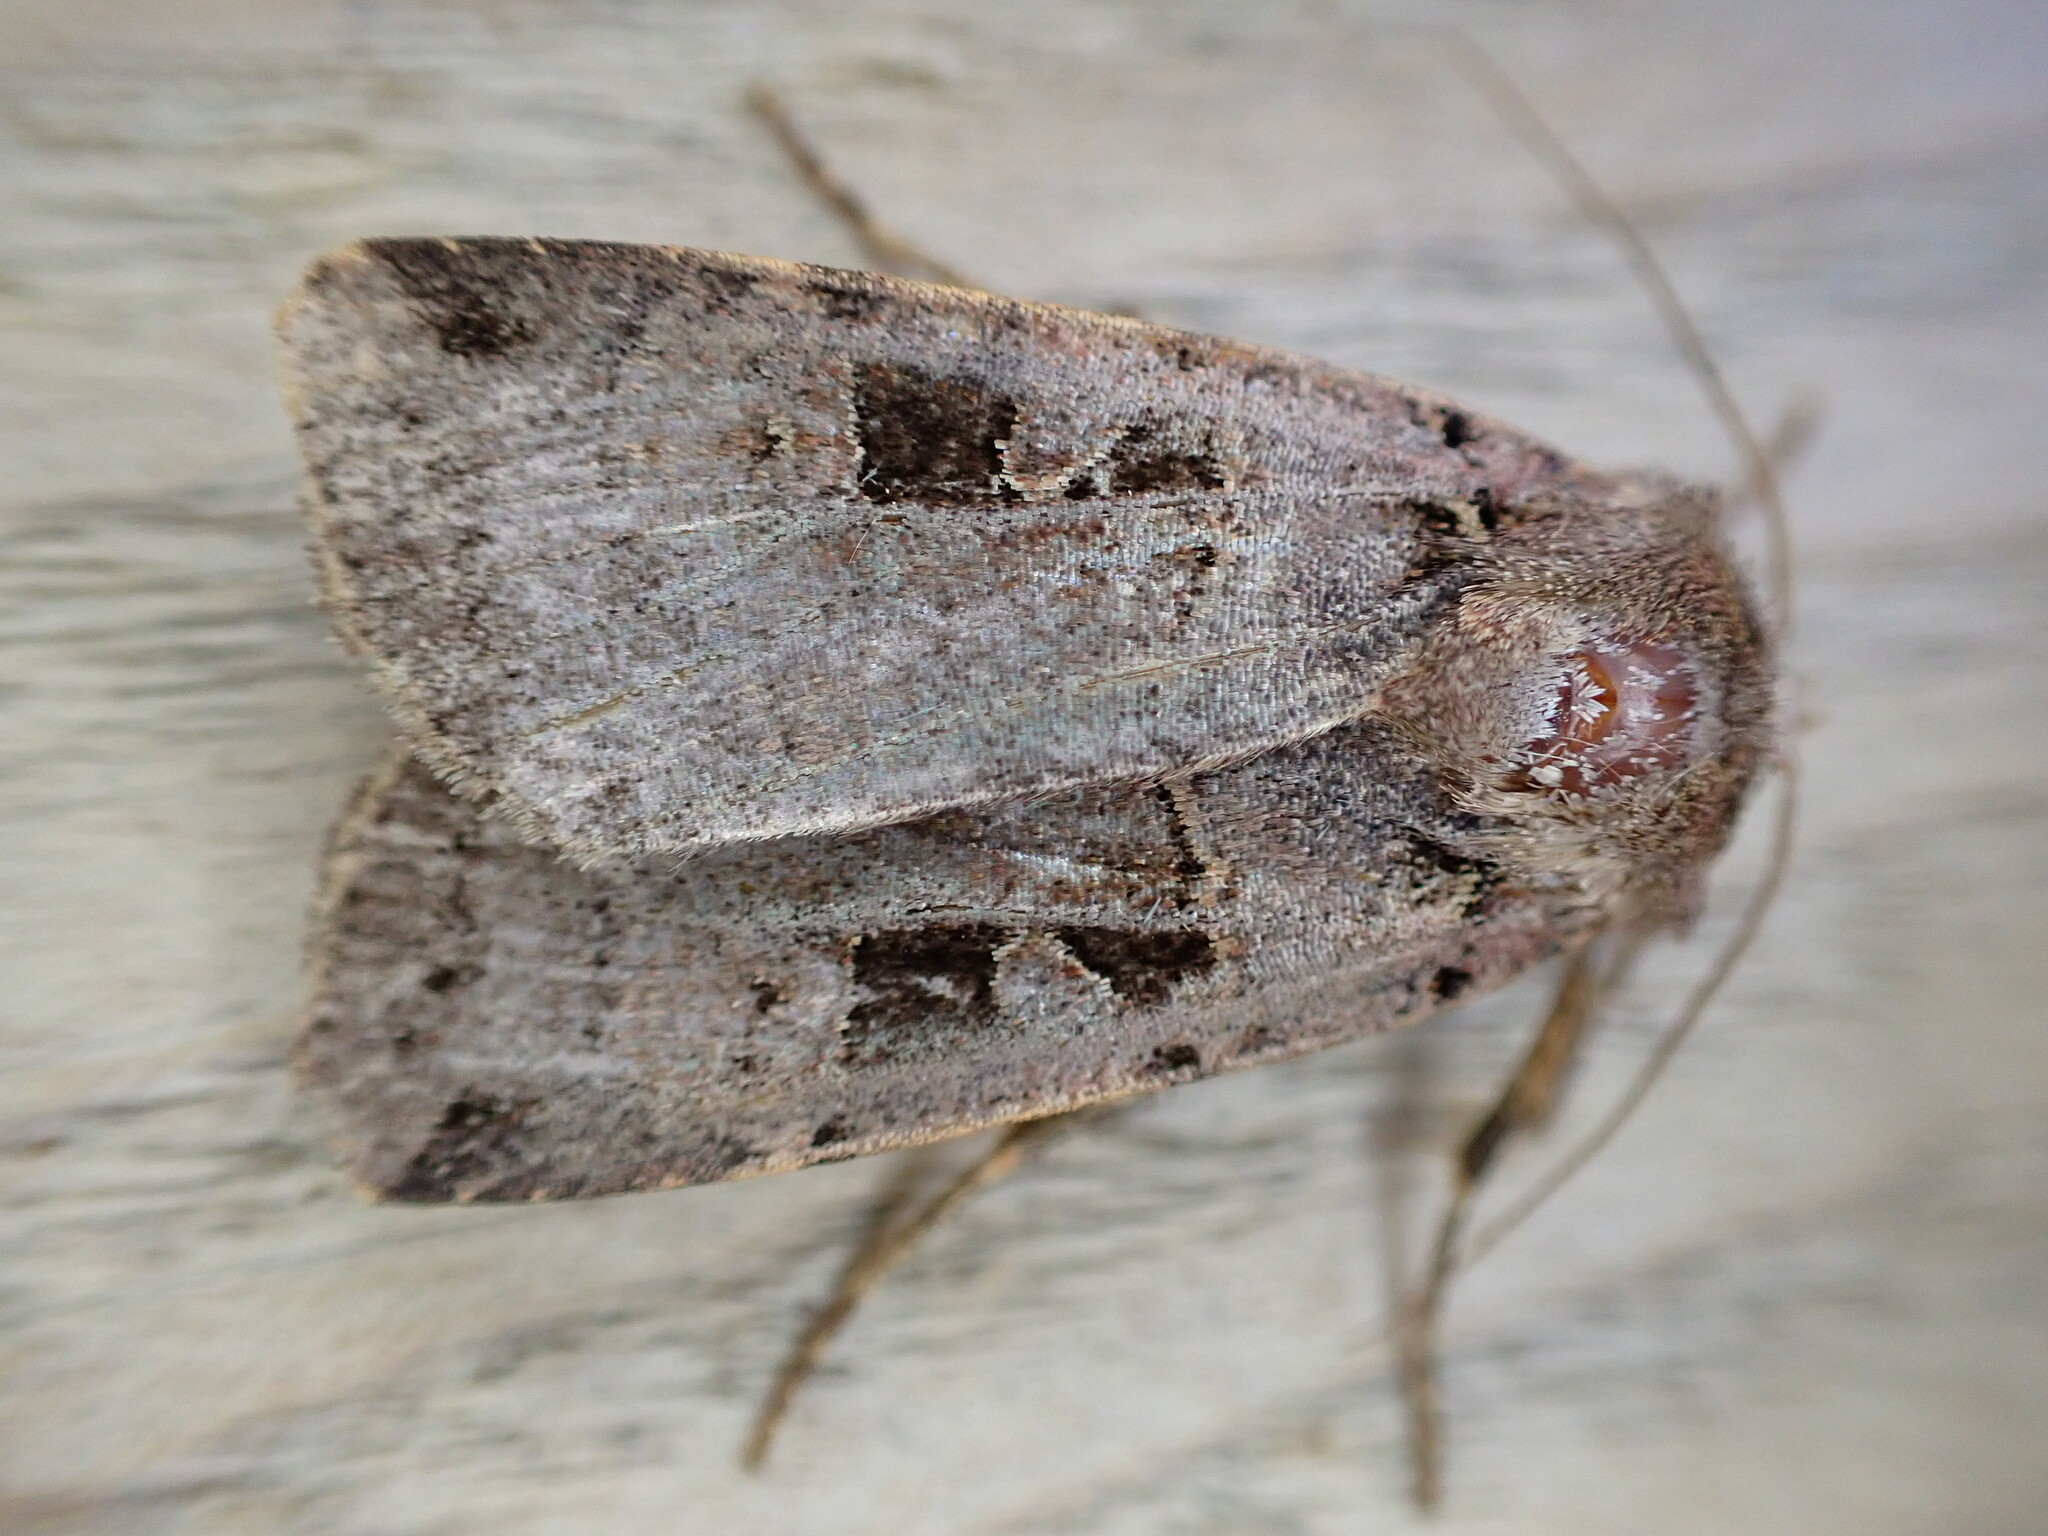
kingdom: Animalia
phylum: Arthropoda
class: Insecta
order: Lepidoptera
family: Noctuidae
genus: Xestia
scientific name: Xestia triangulum
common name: Double square-spot
